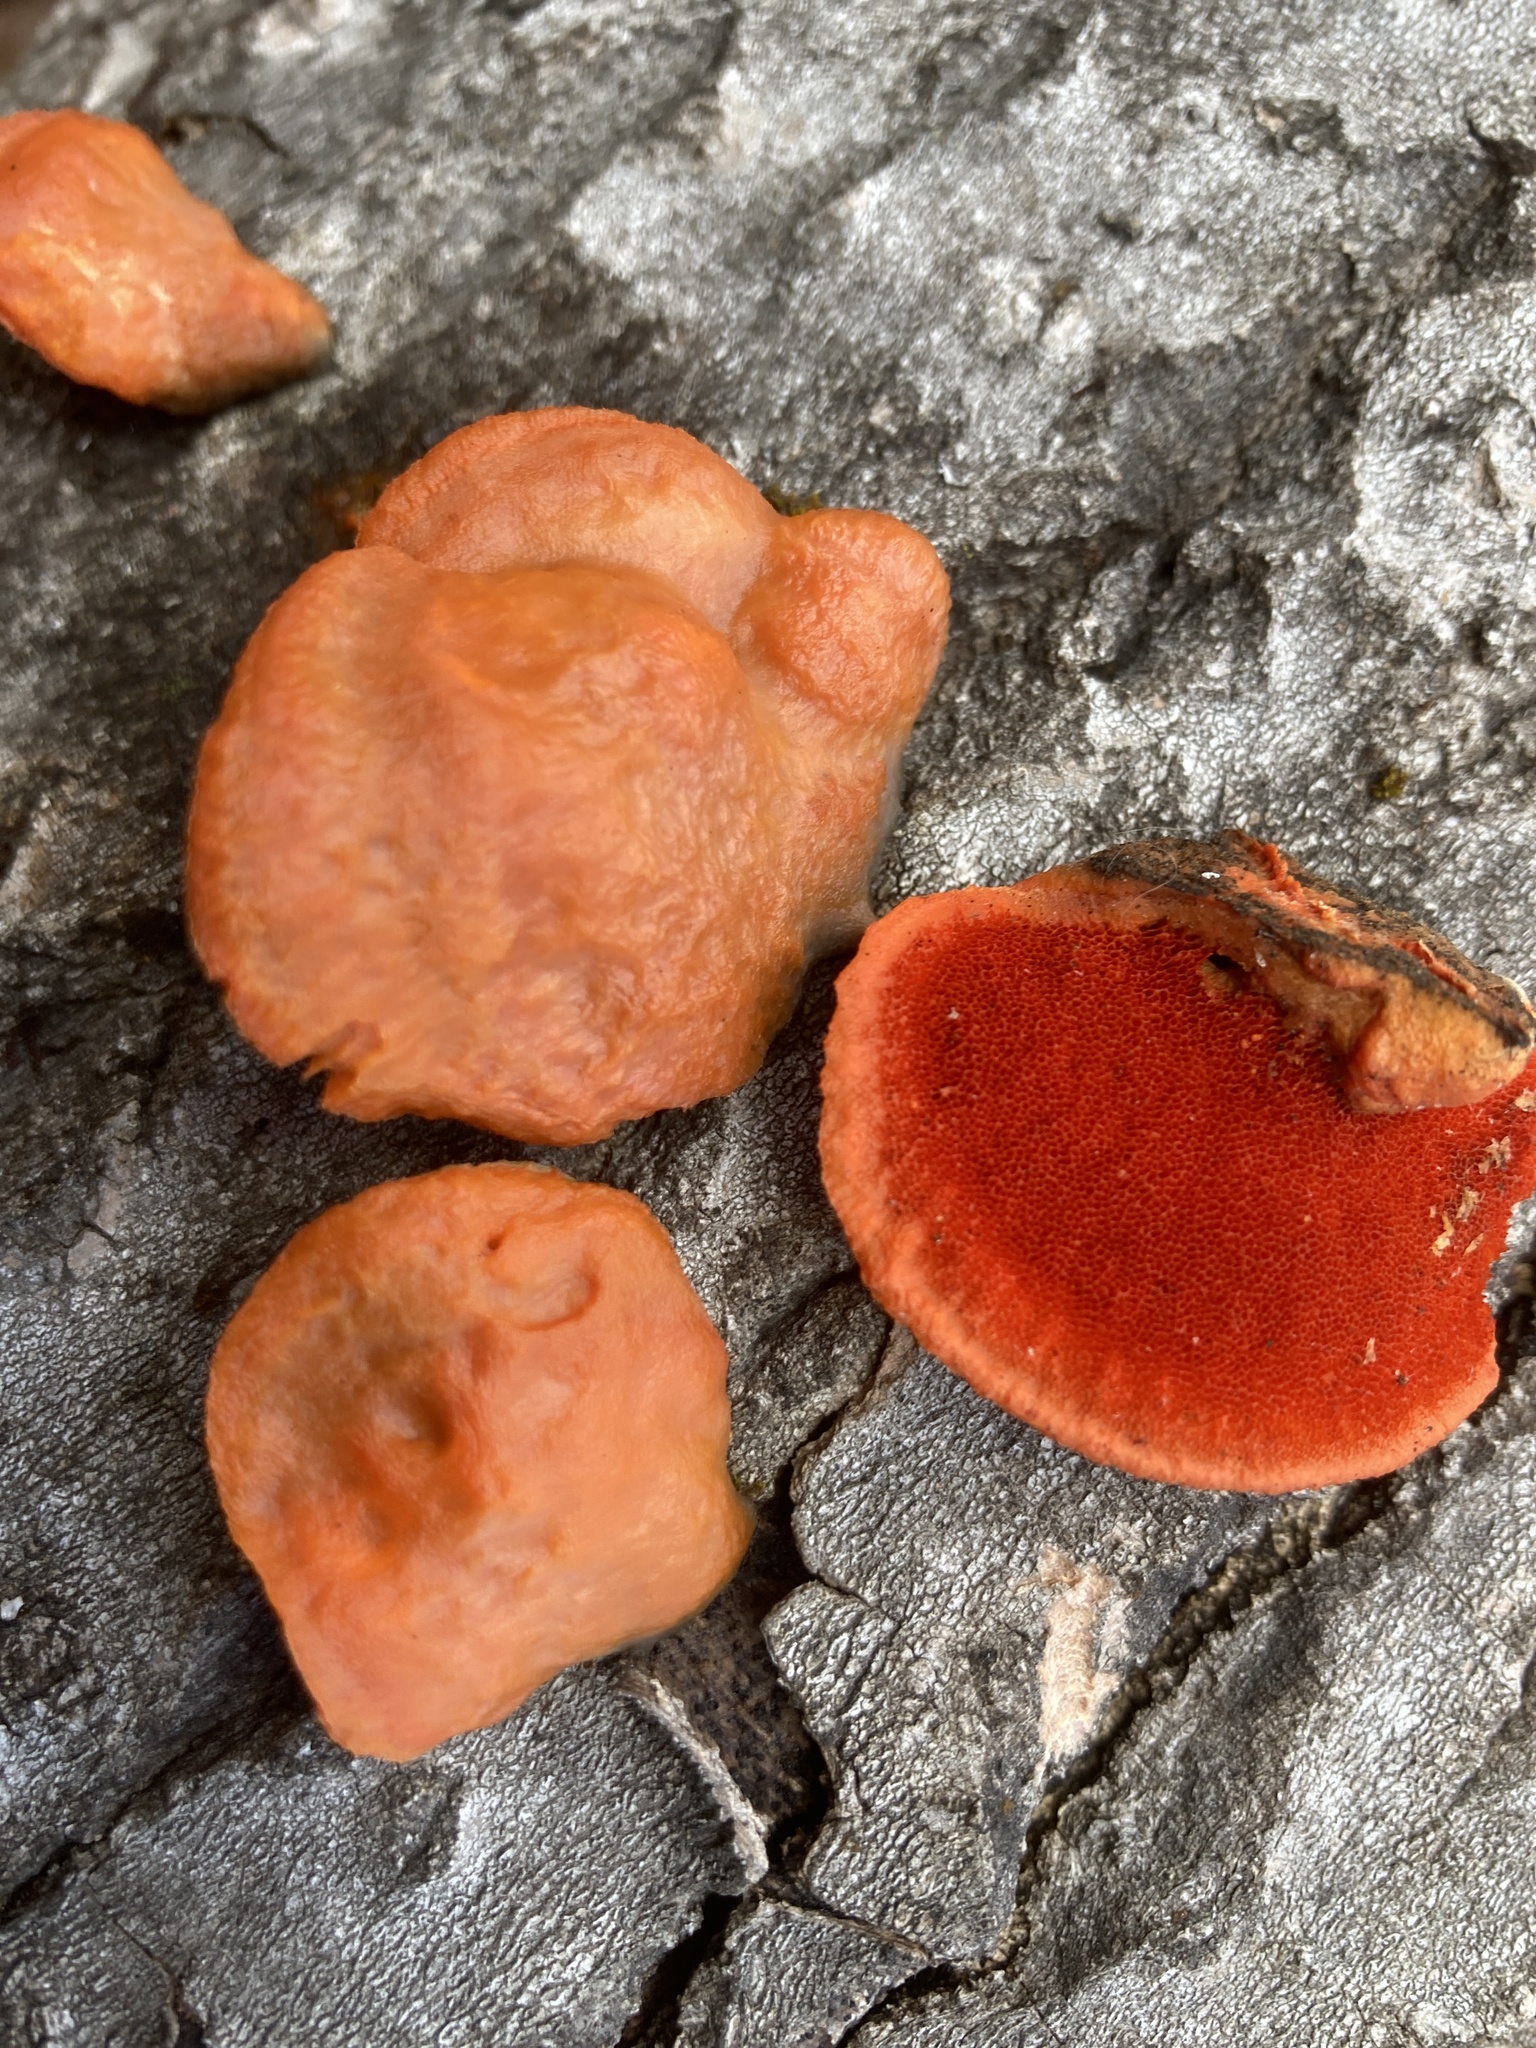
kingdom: Fungi
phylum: Basidiomycota
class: Agaricomycetes
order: Polyporales
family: Polyporaceae
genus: Trametes
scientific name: Trametes cinnabarina
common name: Northern cinnabar polypore
